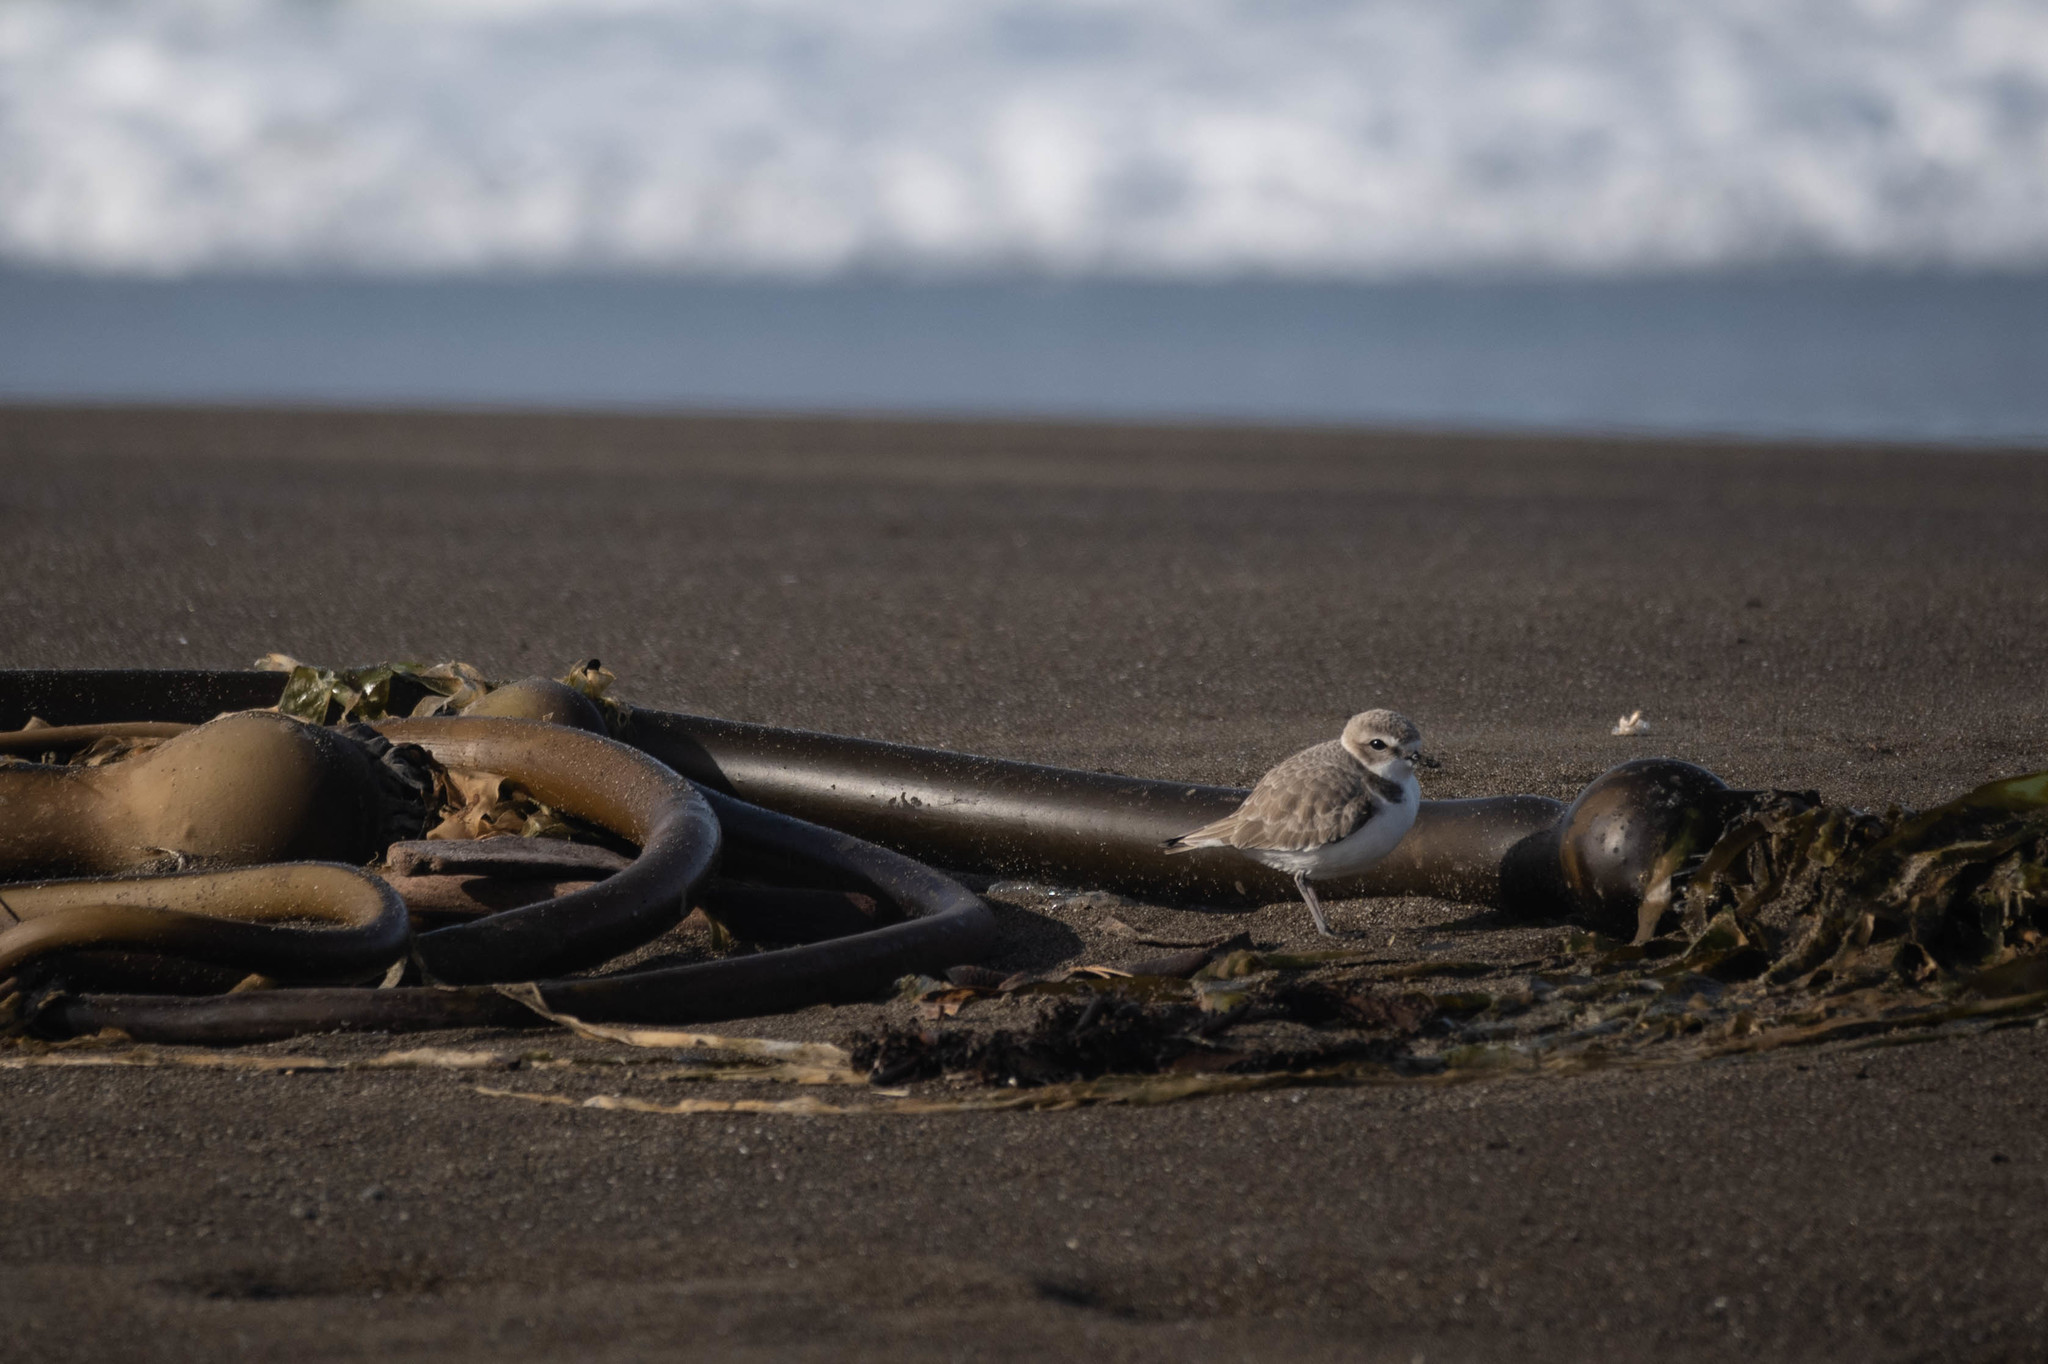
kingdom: Animalia
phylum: Chordata
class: Aves
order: Charadriiformes
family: Charadriidae
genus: Anarhynchus
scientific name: Anarhynchus
